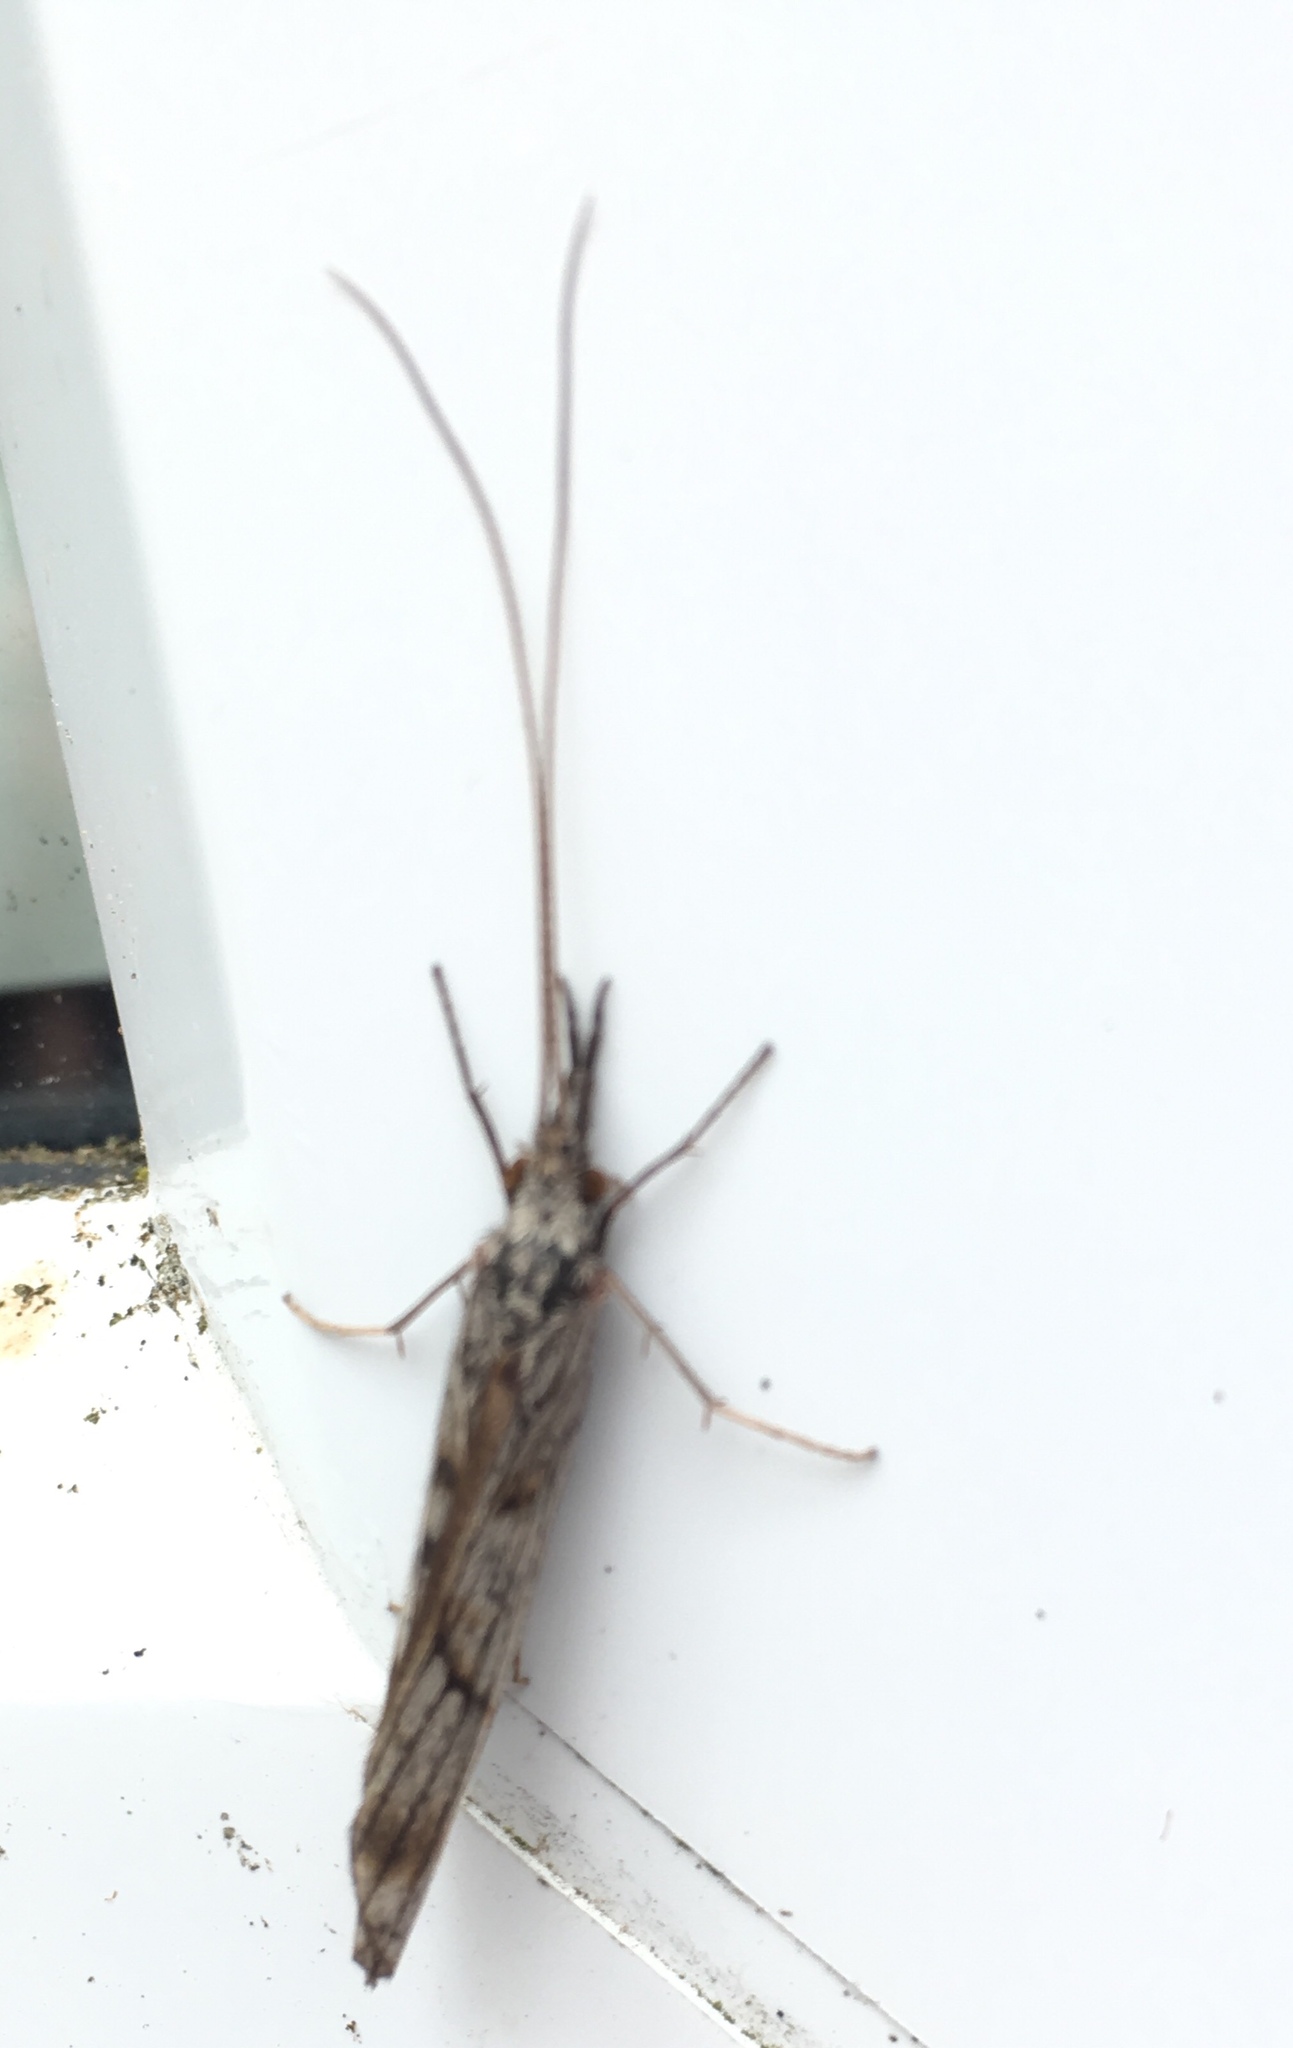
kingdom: Animalia
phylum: Arthropoda
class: Insecta
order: Trichoptera
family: Odontoceridae
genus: Odontocerum
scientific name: Odontocerum albicorne
